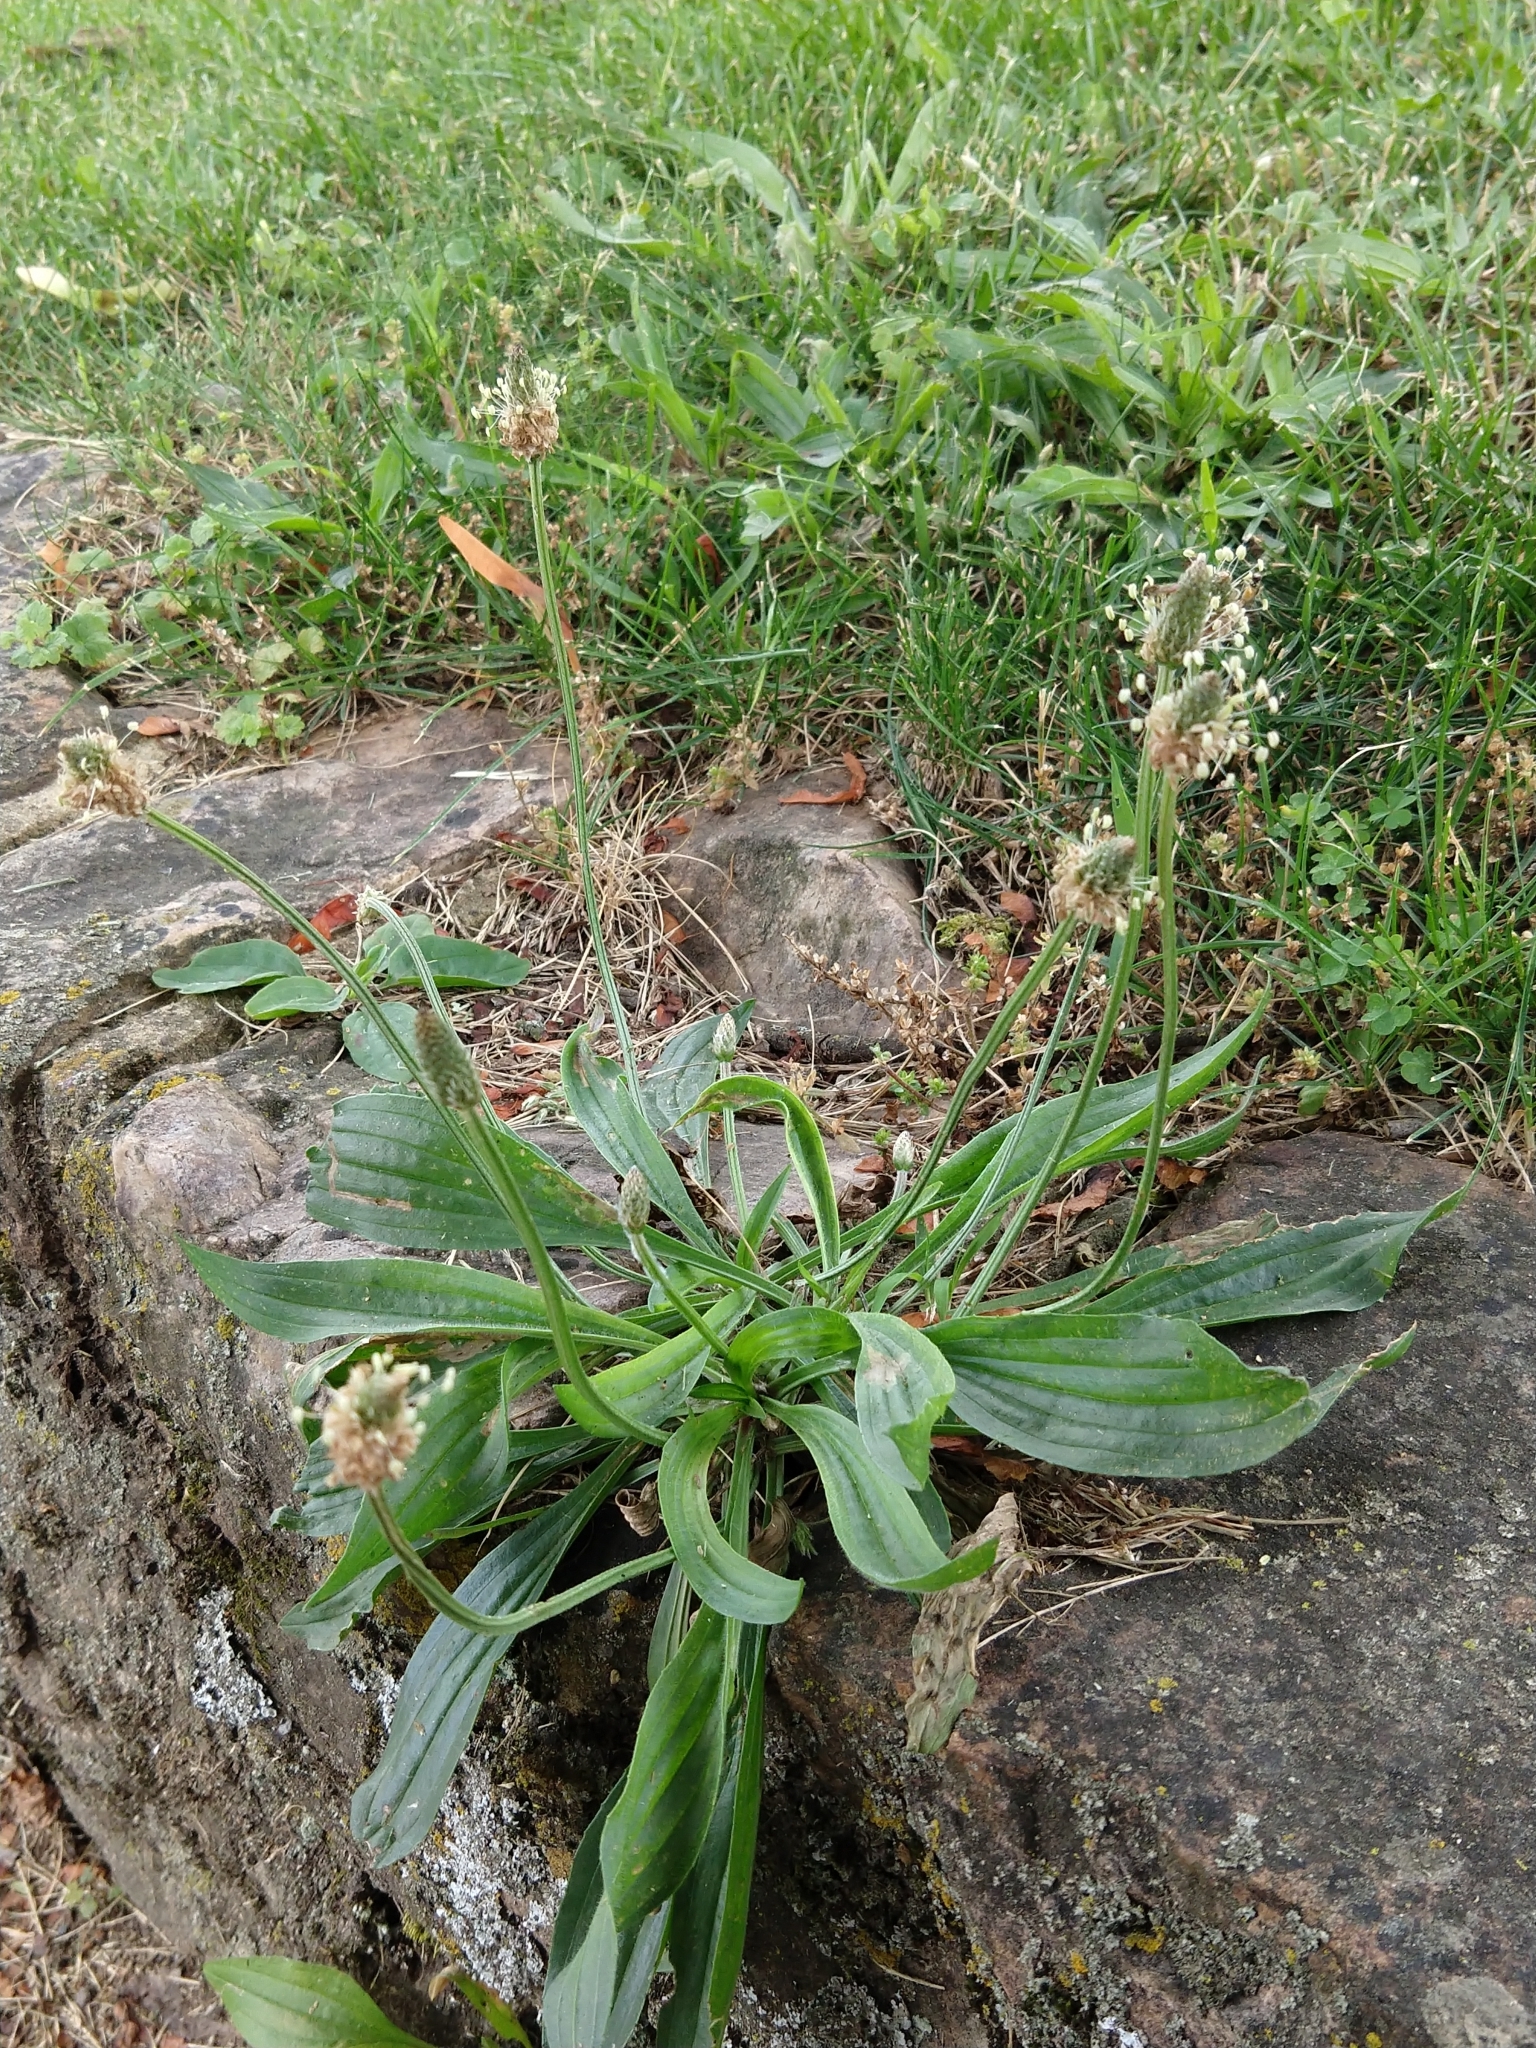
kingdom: Plantae
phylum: Tracheophyta
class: Magnoliopsida
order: Lamiales
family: Plantaginaceae
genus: Plantago
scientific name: Plantago lanceolata
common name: Ribwort plantain
